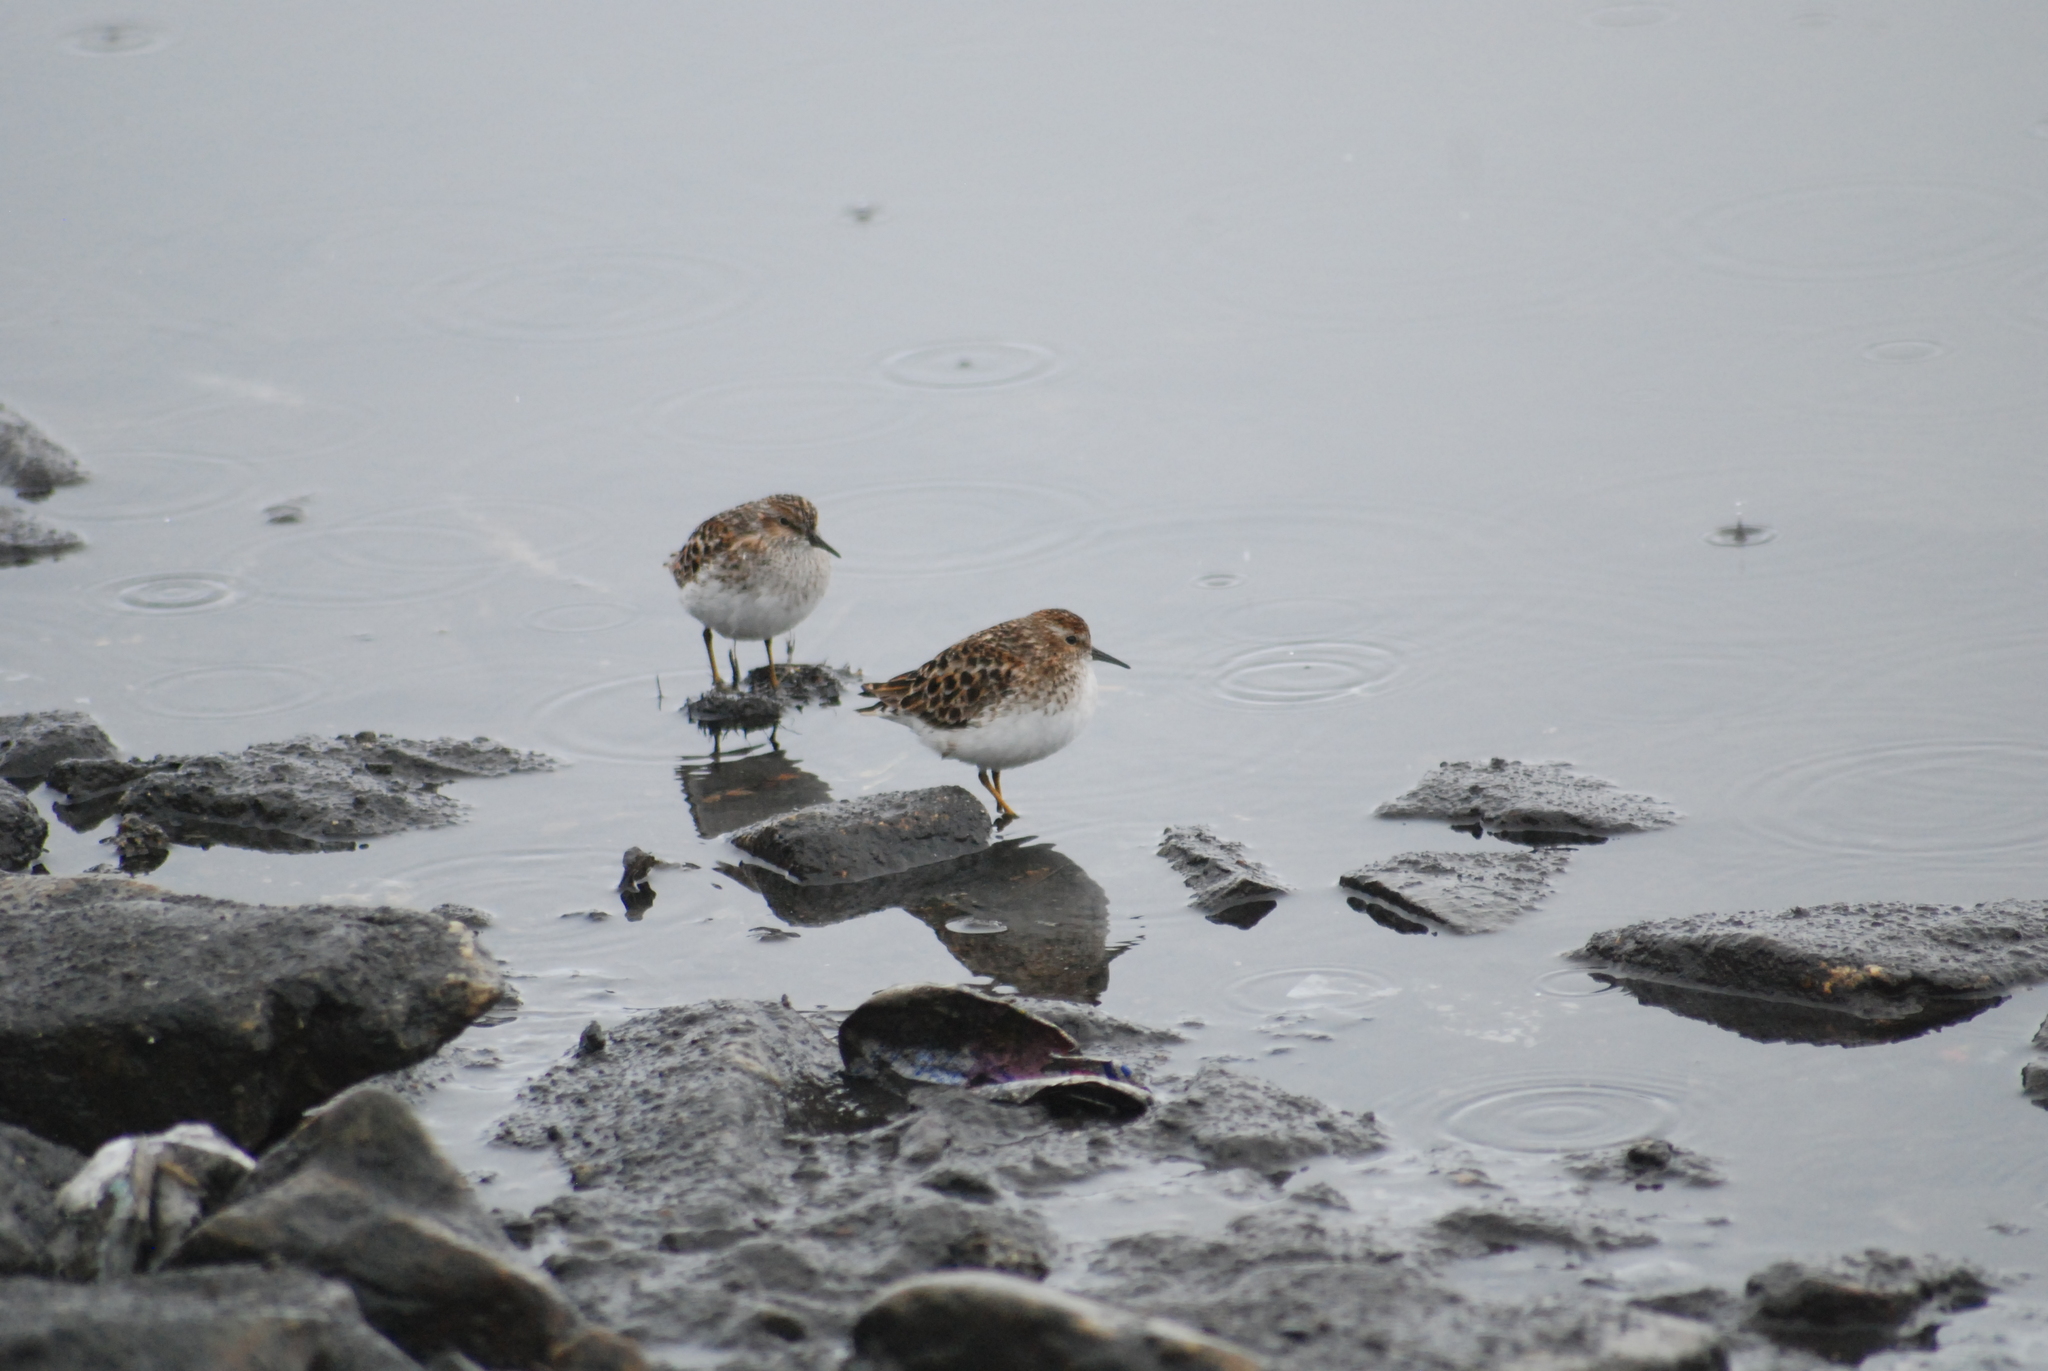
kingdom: Animalia
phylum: Chordata
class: Aves
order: Charadriiformes
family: Scolopacidae
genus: Calidris
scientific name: Calidris minutilla
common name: Least sandpiper
